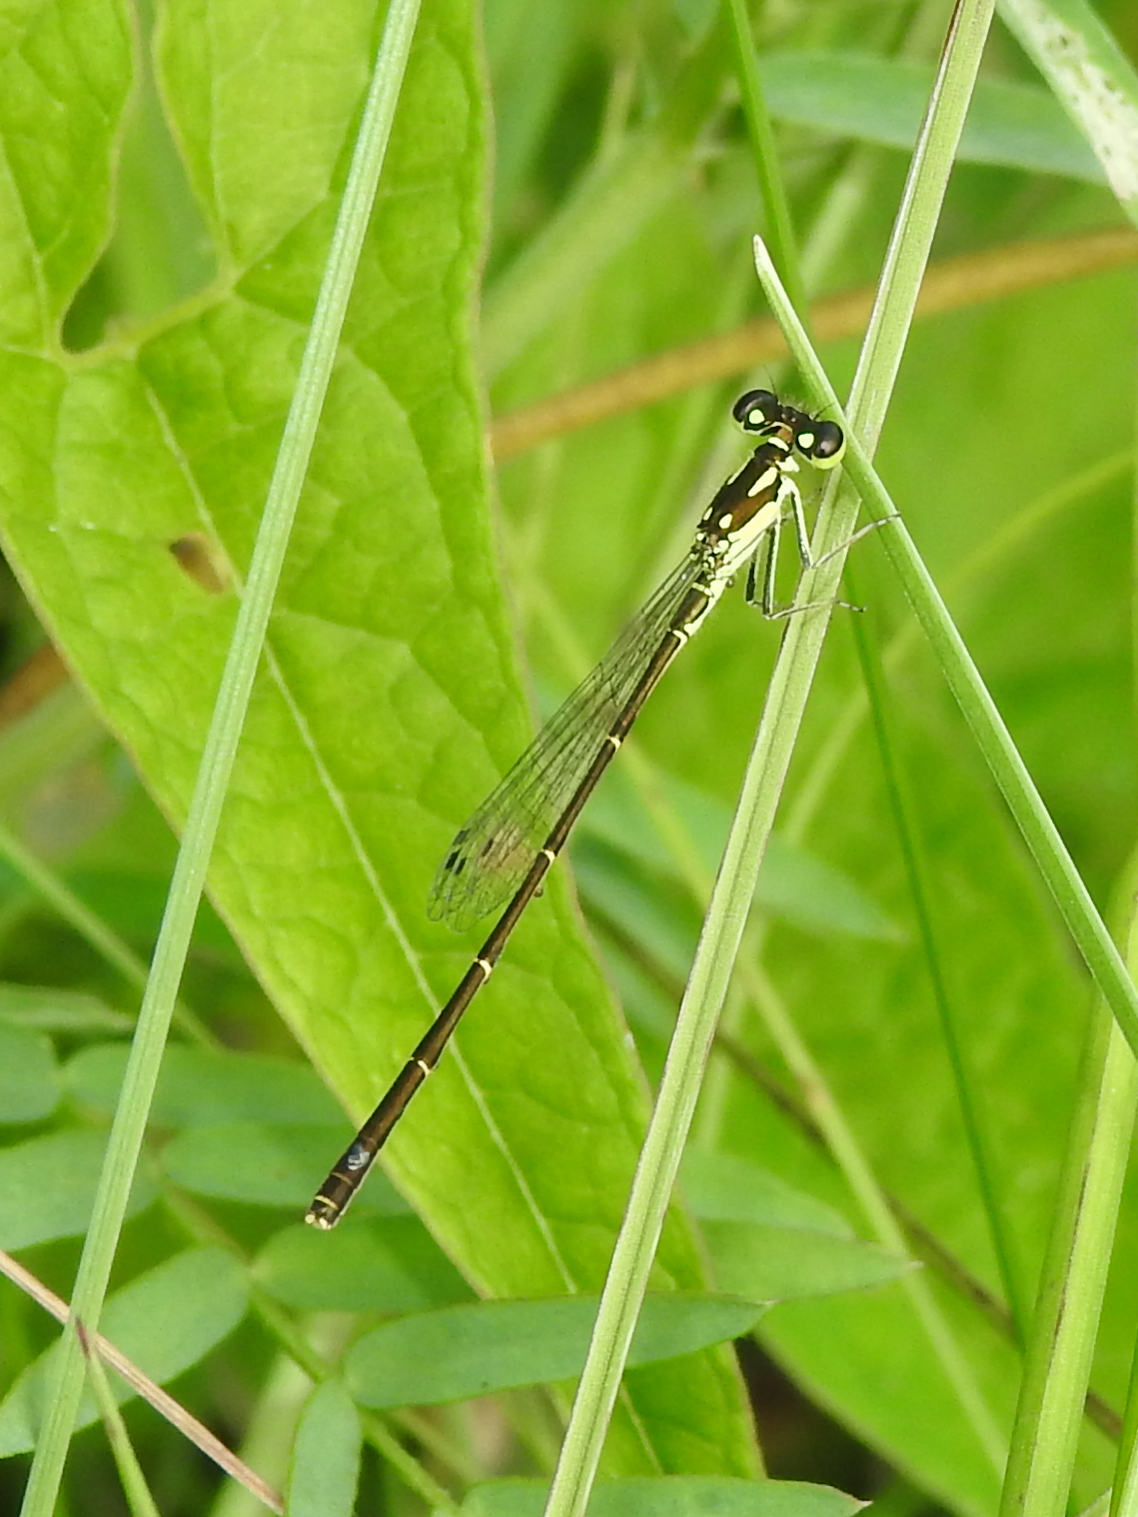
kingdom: Animalia
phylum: Arthropoda
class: Insecta
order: Odonata
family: Coenagrionidae
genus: Ischnura
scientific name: Ischnura posita
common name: Fragile forktail
